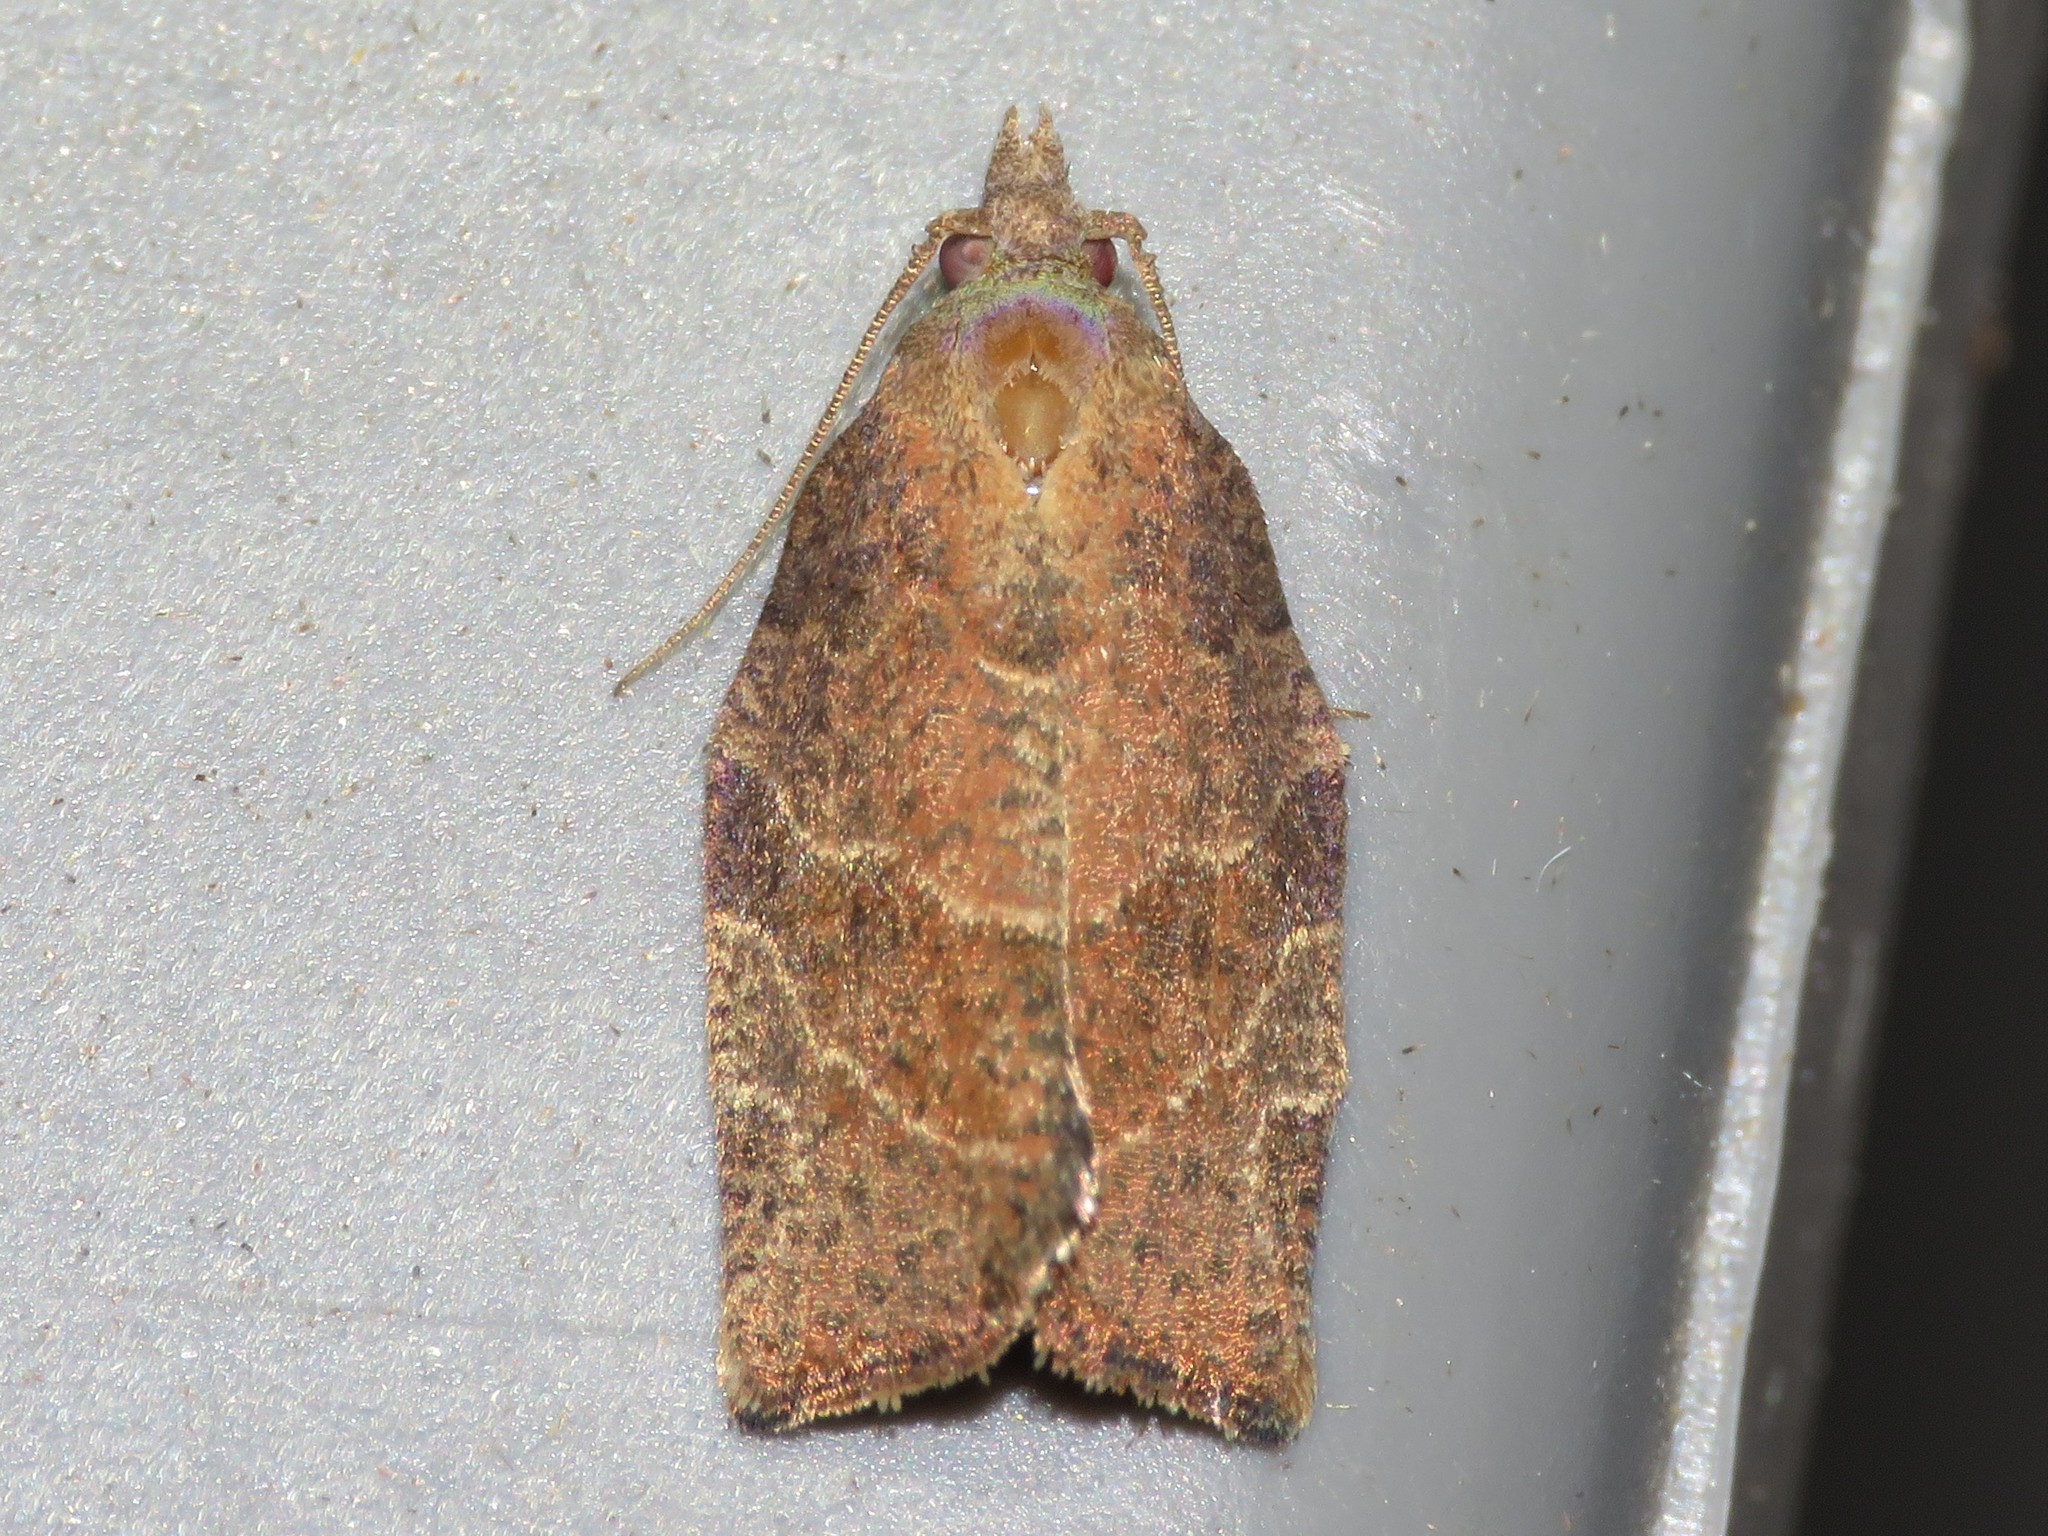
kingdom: Animalia
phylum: Arthropoda
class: Insecta
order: Lepidoptera
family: Tortricidae
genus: Pandemis
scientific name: Pandemis canadana
